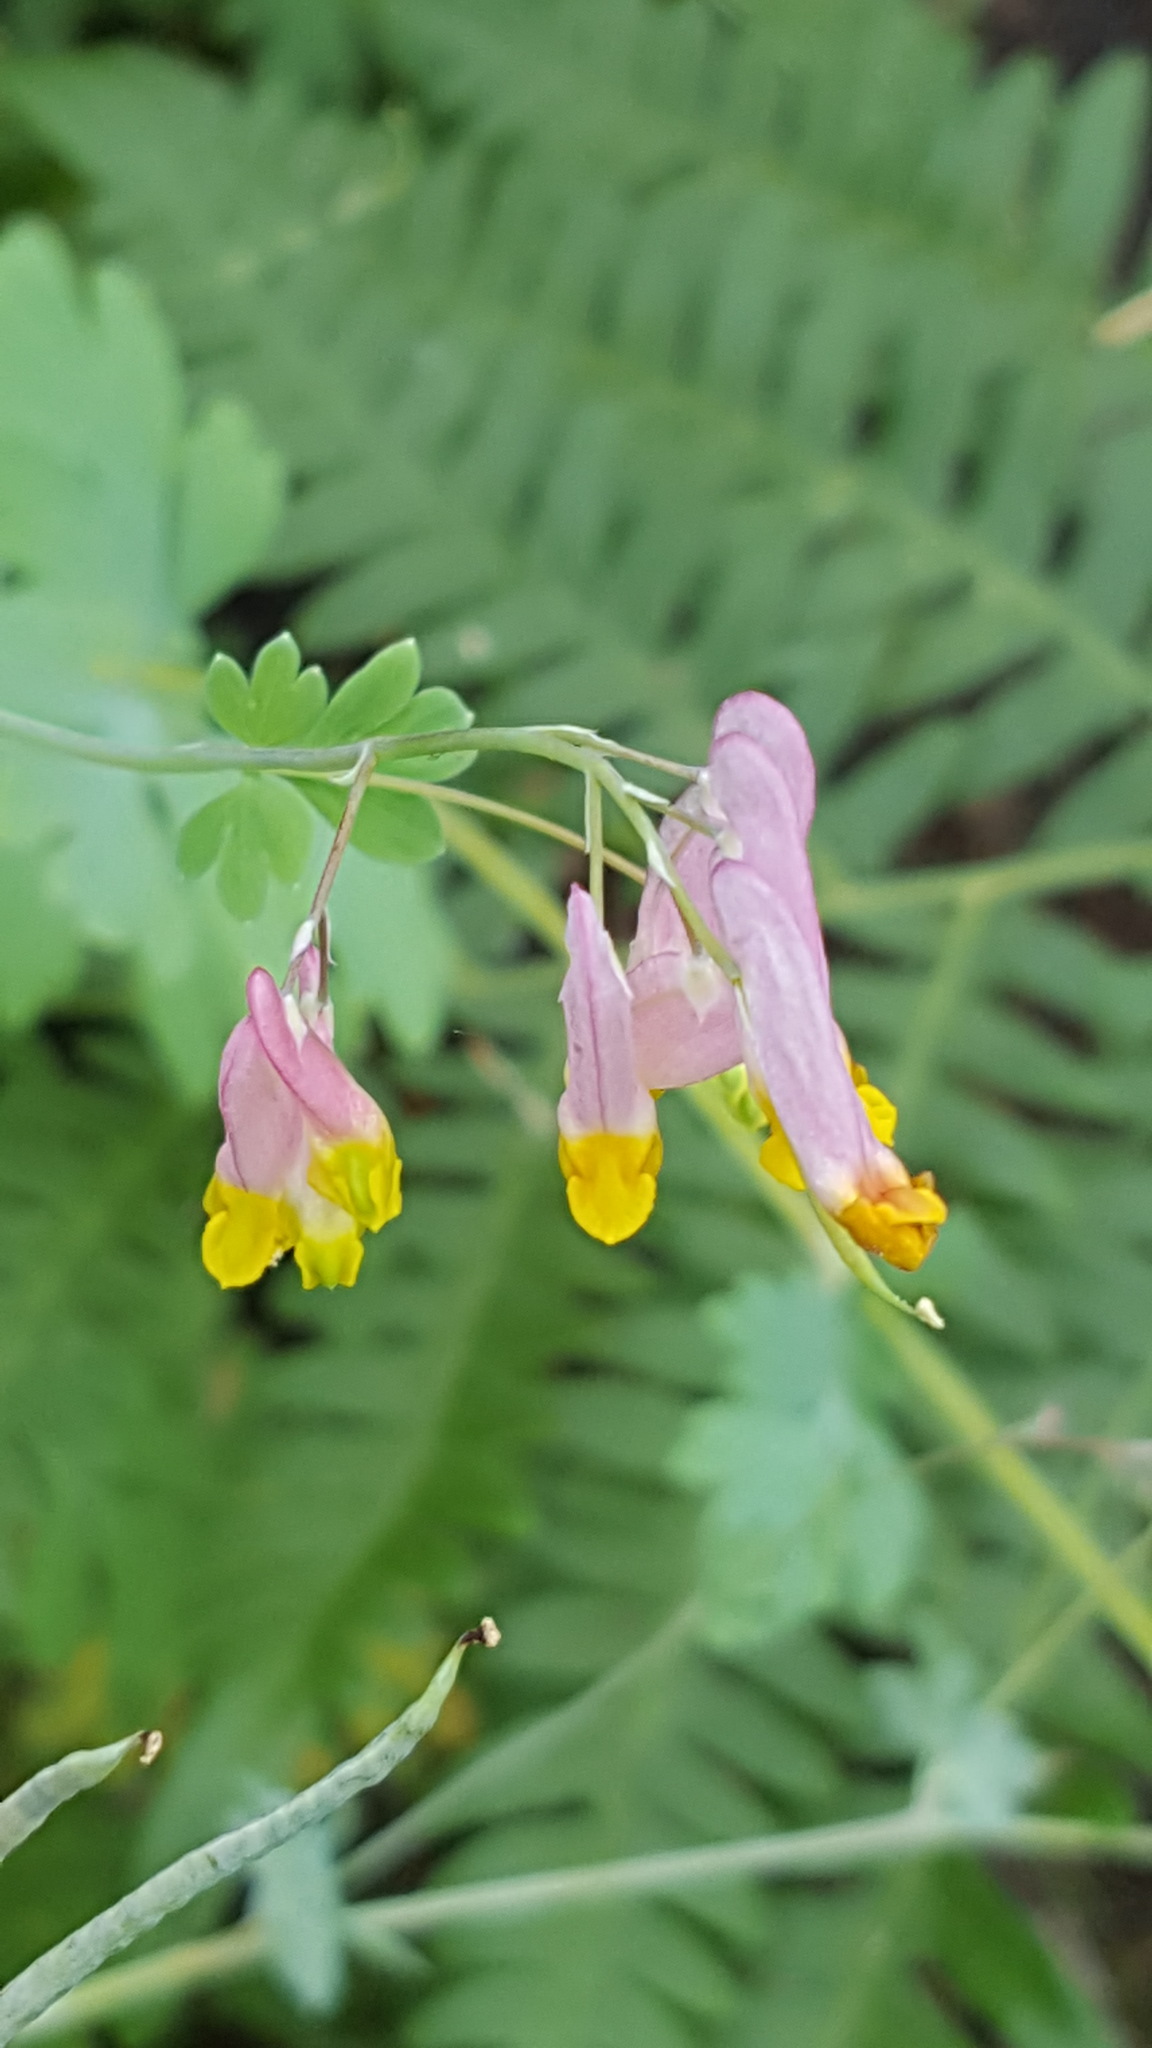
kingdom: Plantae
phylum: Tracheophyta
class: Magnoliopsida
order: Ranunculales
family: Papaveraceae
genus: Capnoides
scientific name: Capnoides sempervirens
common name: Rock harlequin
